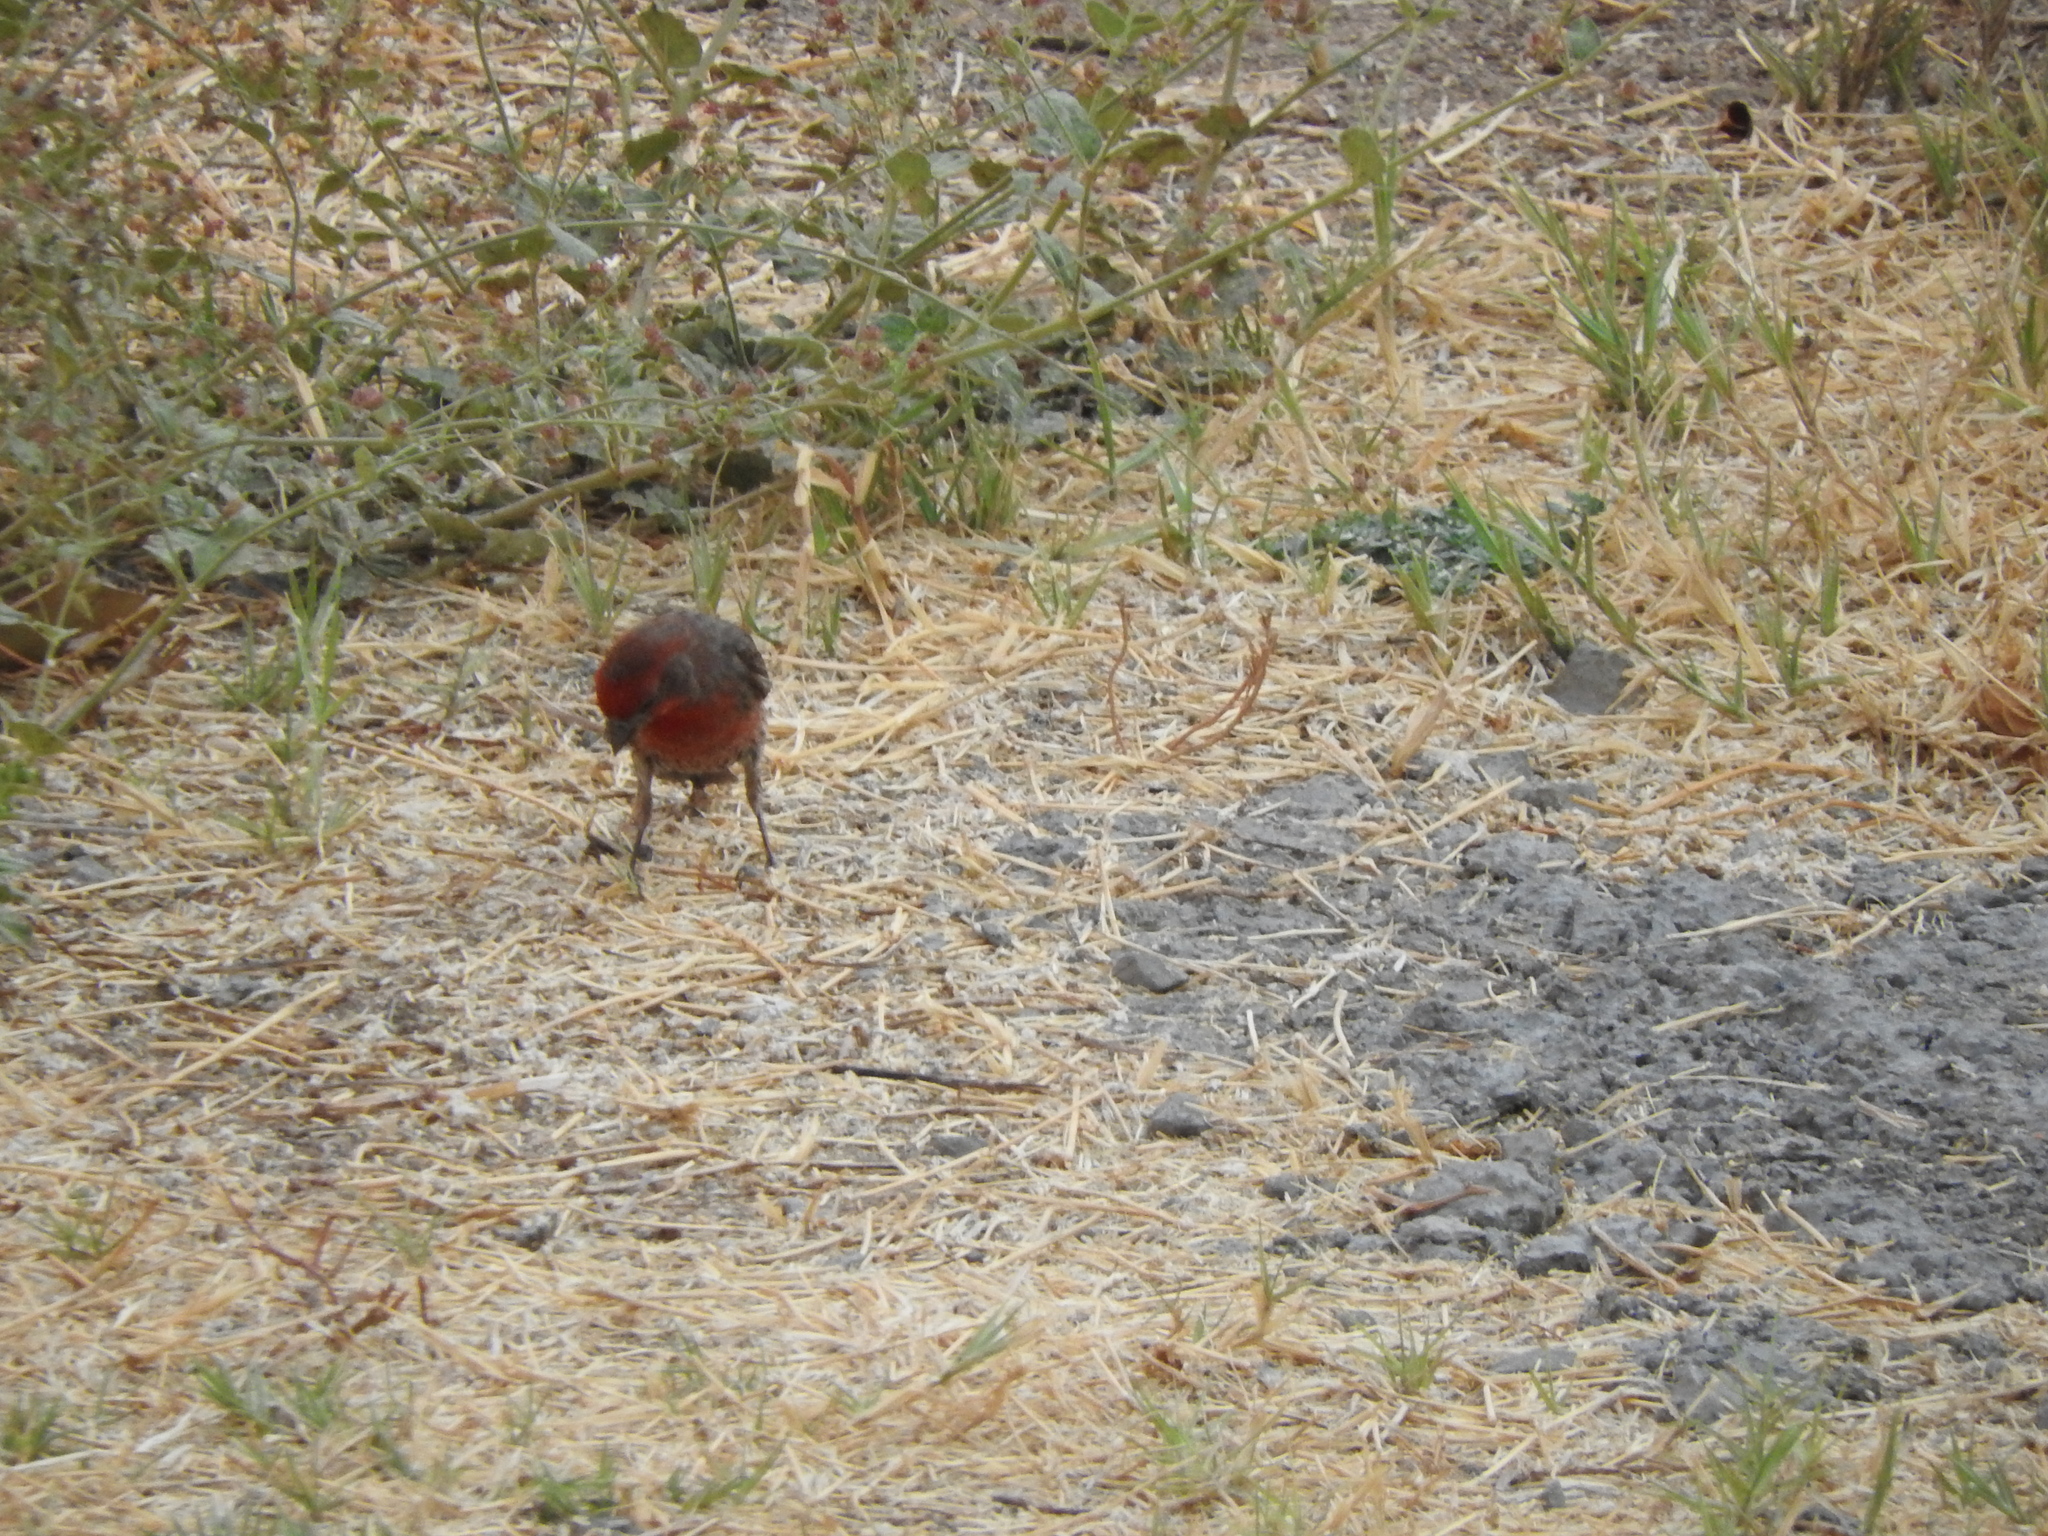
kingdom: Animalia
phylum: Chordata
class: Aves
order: Passeriformes
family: Fringillidae
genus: Haemorhous
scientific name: Haemorhous mexicanus
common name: House finch
